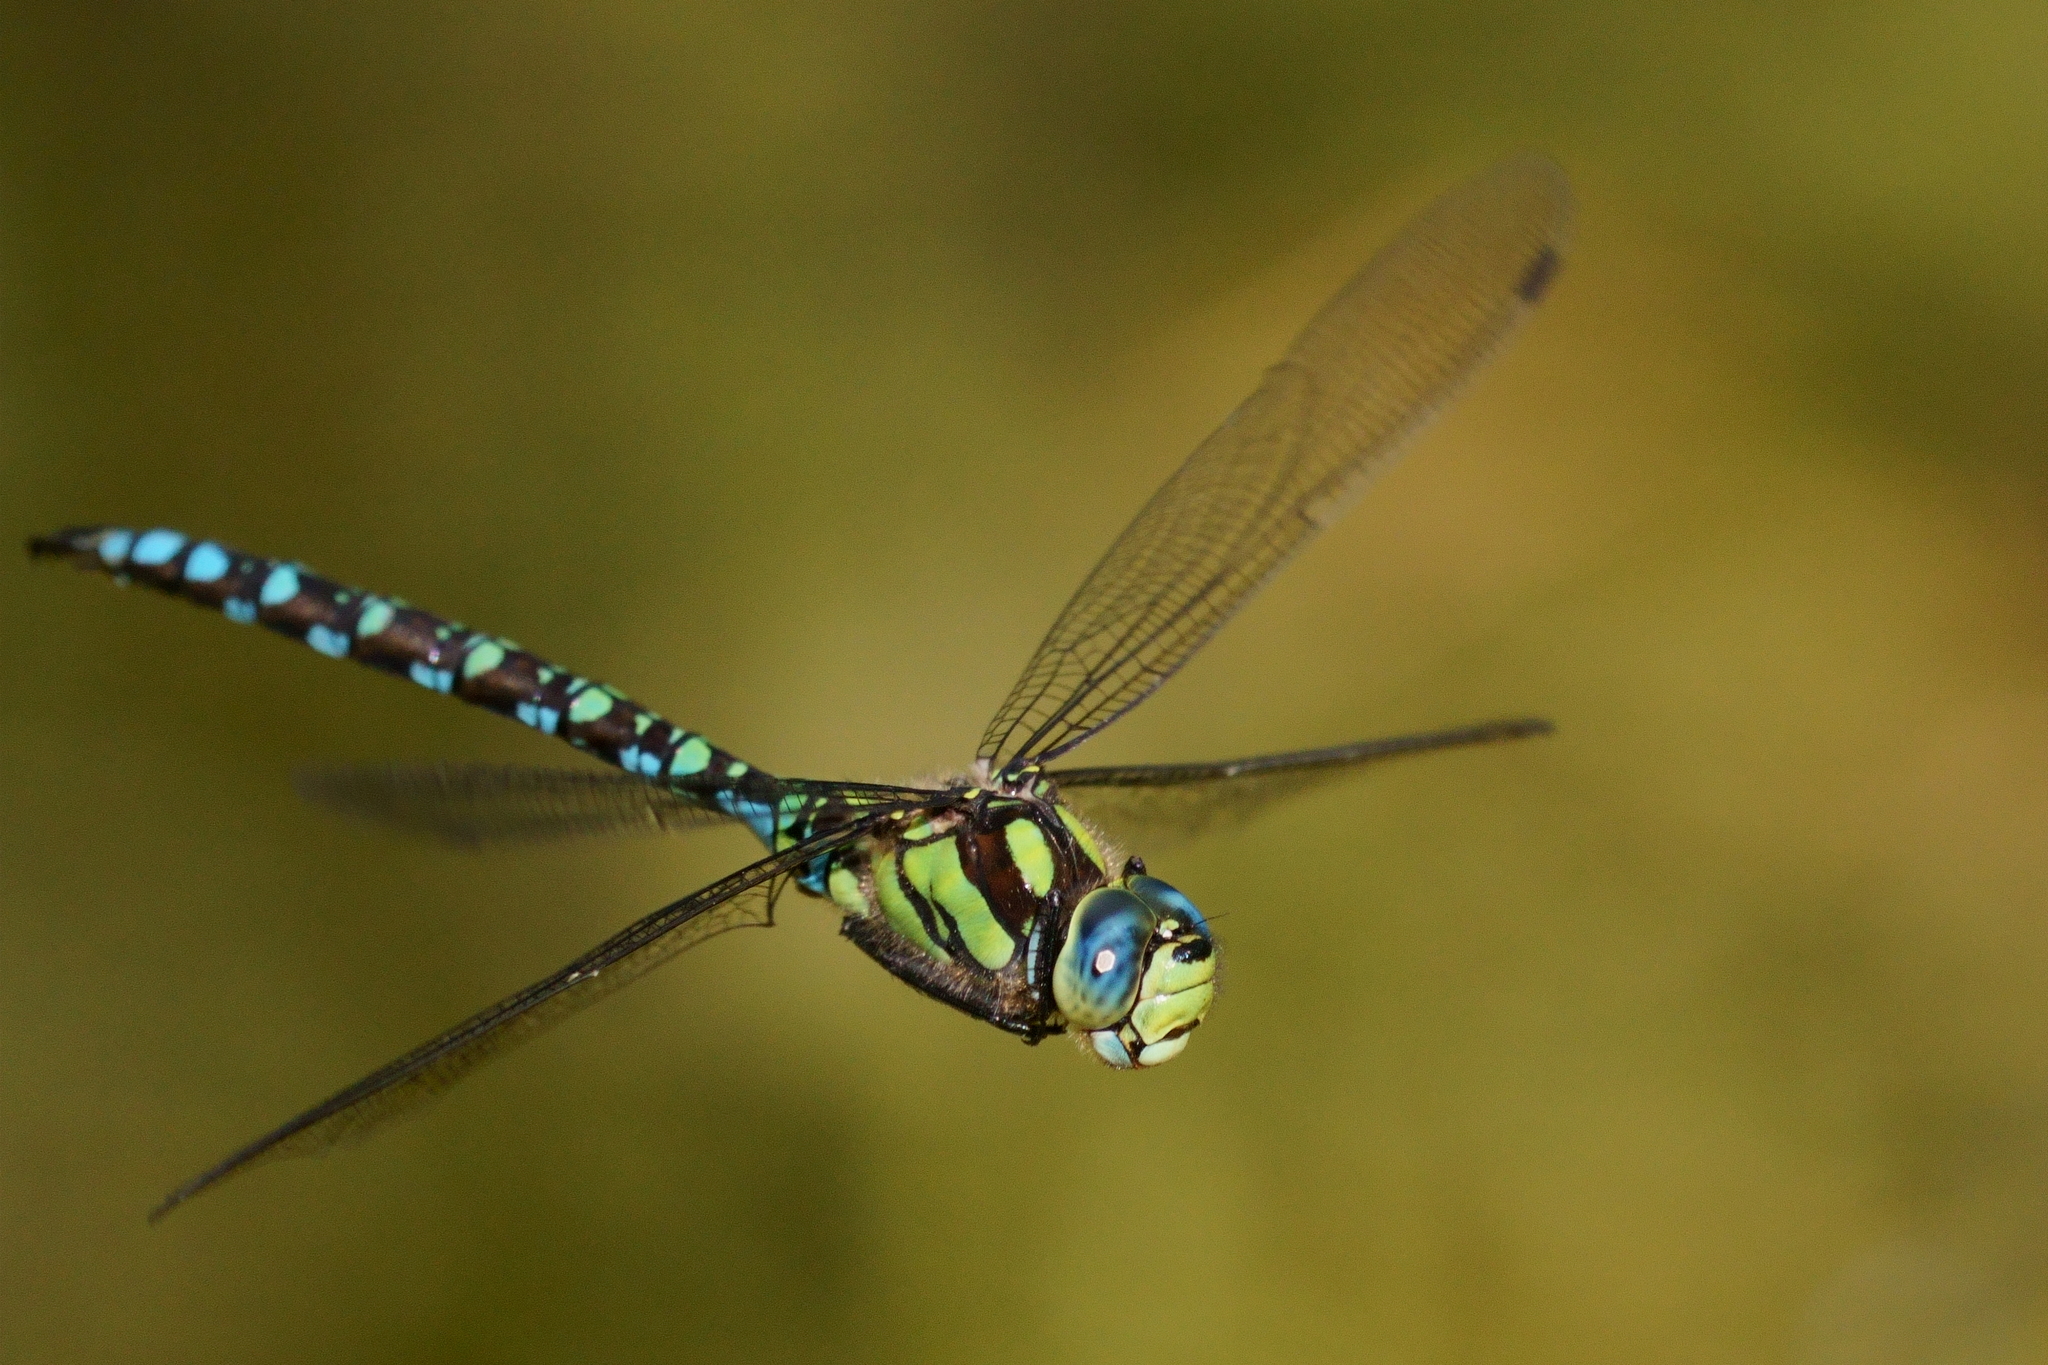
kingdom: Animalia
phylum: Arthropoda
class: Insecta
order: Odonata
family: Aeshnidae
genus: Aeshna
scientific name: Aeshna cyanea
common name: Southern hawker
